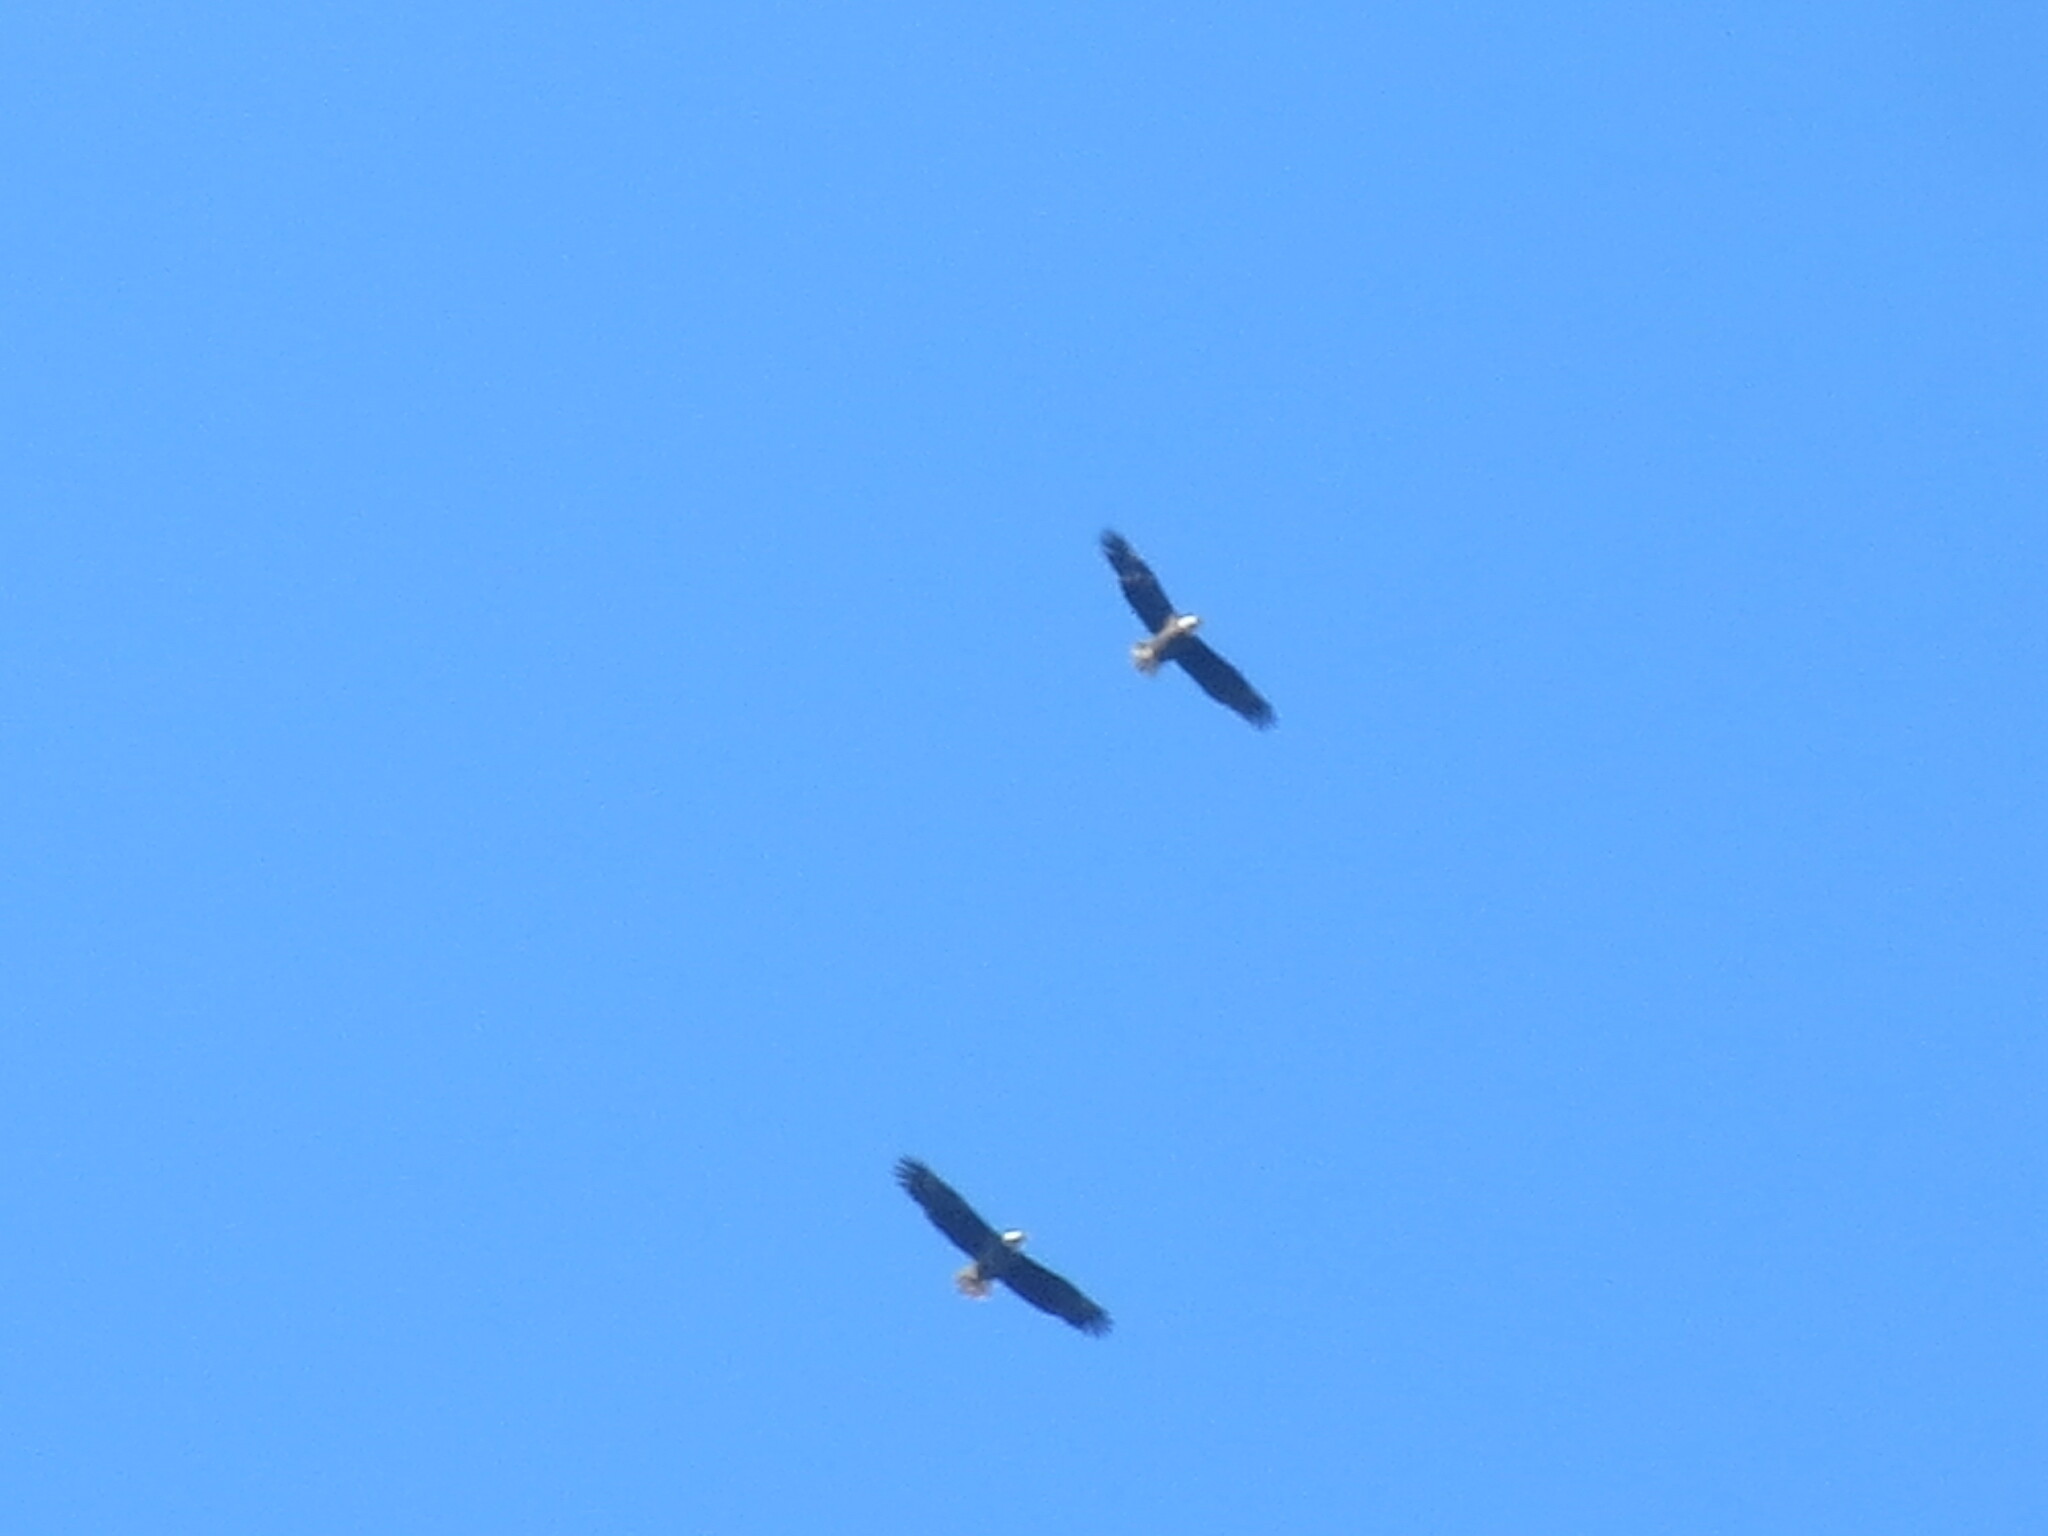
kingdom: Animalia
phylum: Chordata
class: Aves
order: Accipitriformes
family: Accipitridae
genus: Haliaeetus
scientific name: Haliaeetus leucocephalus
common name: Bald eagle
